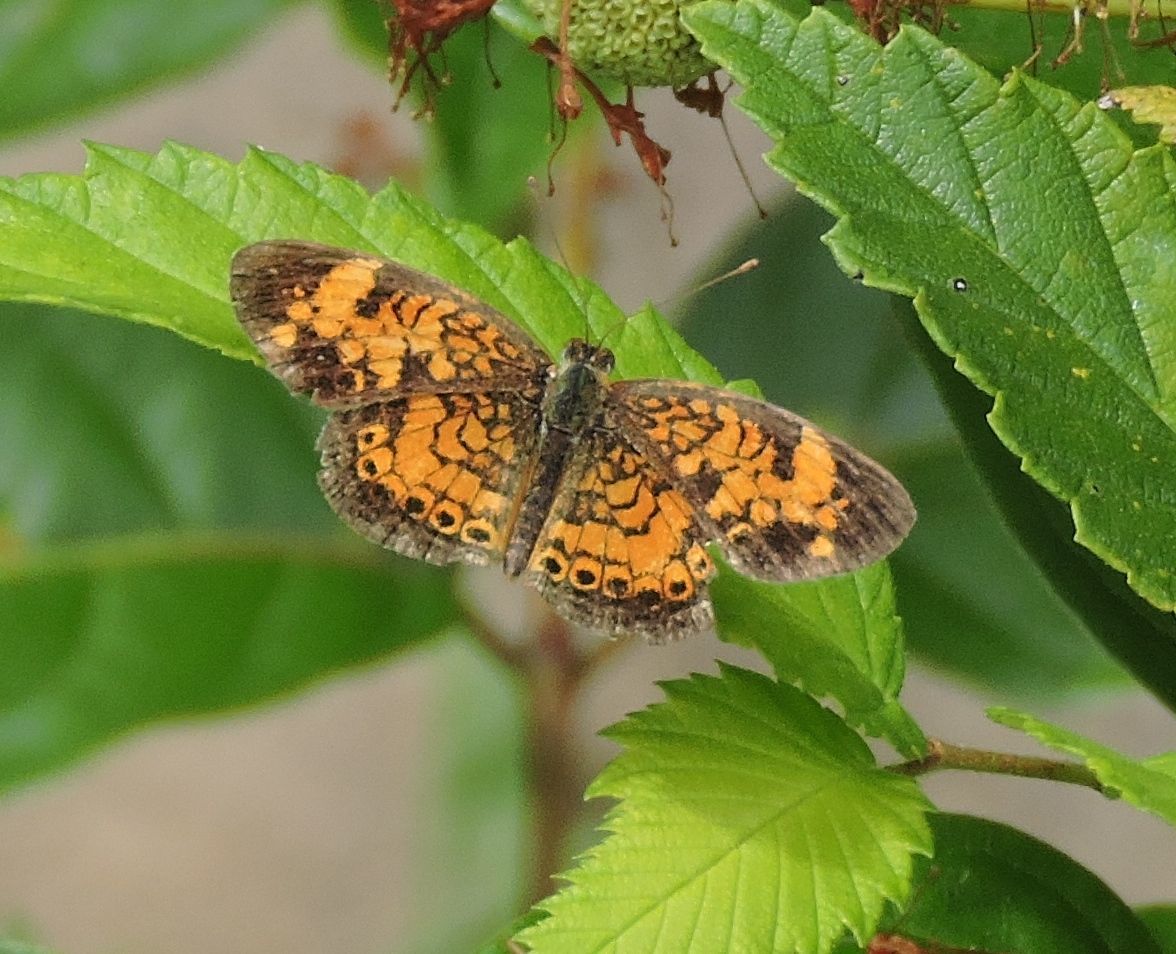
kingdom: Animalia
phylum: Arthropoda
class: Insecta
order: Lepidoptera
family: Nymphalidae
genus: Phyciodes
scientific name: Phyciodes tharos
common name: Pearl crescent
